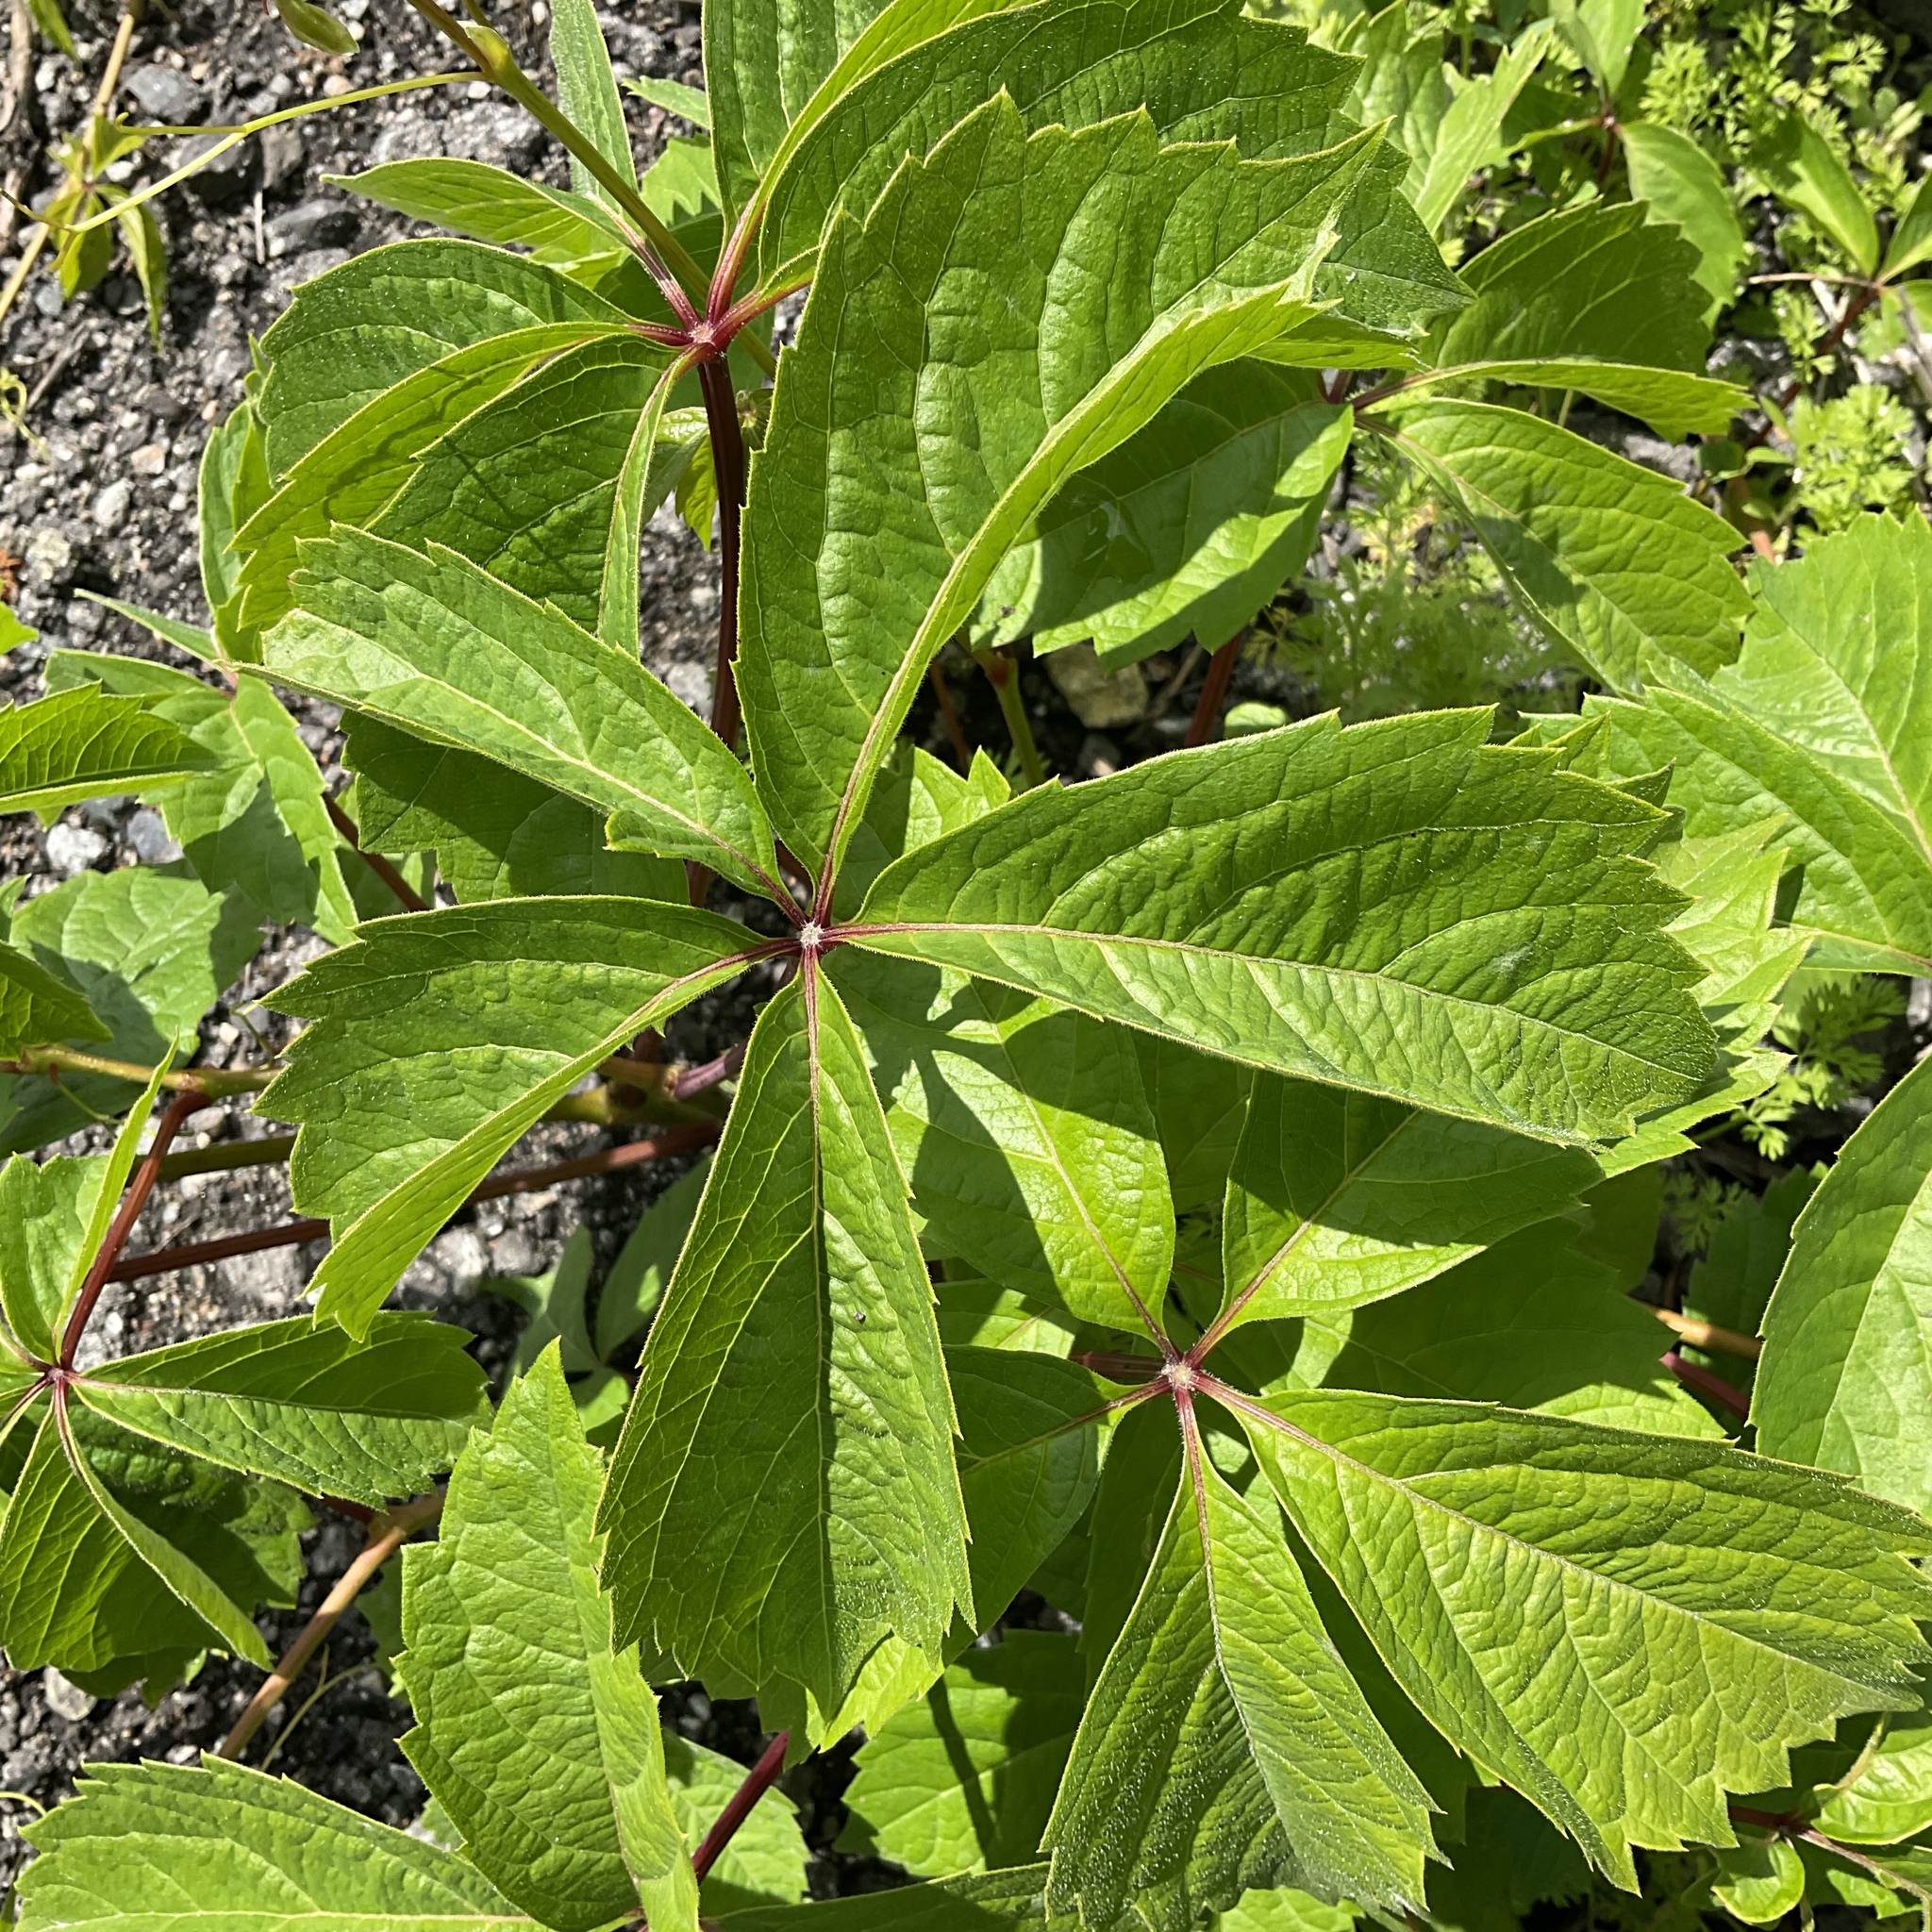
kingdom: Plantae
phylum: Tracheophyta
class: Magnoliopsida
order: Vitales
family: Vitaceae
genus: Parthenocissus
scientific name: Parthenocissus inserta
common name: False virginia-creeper
